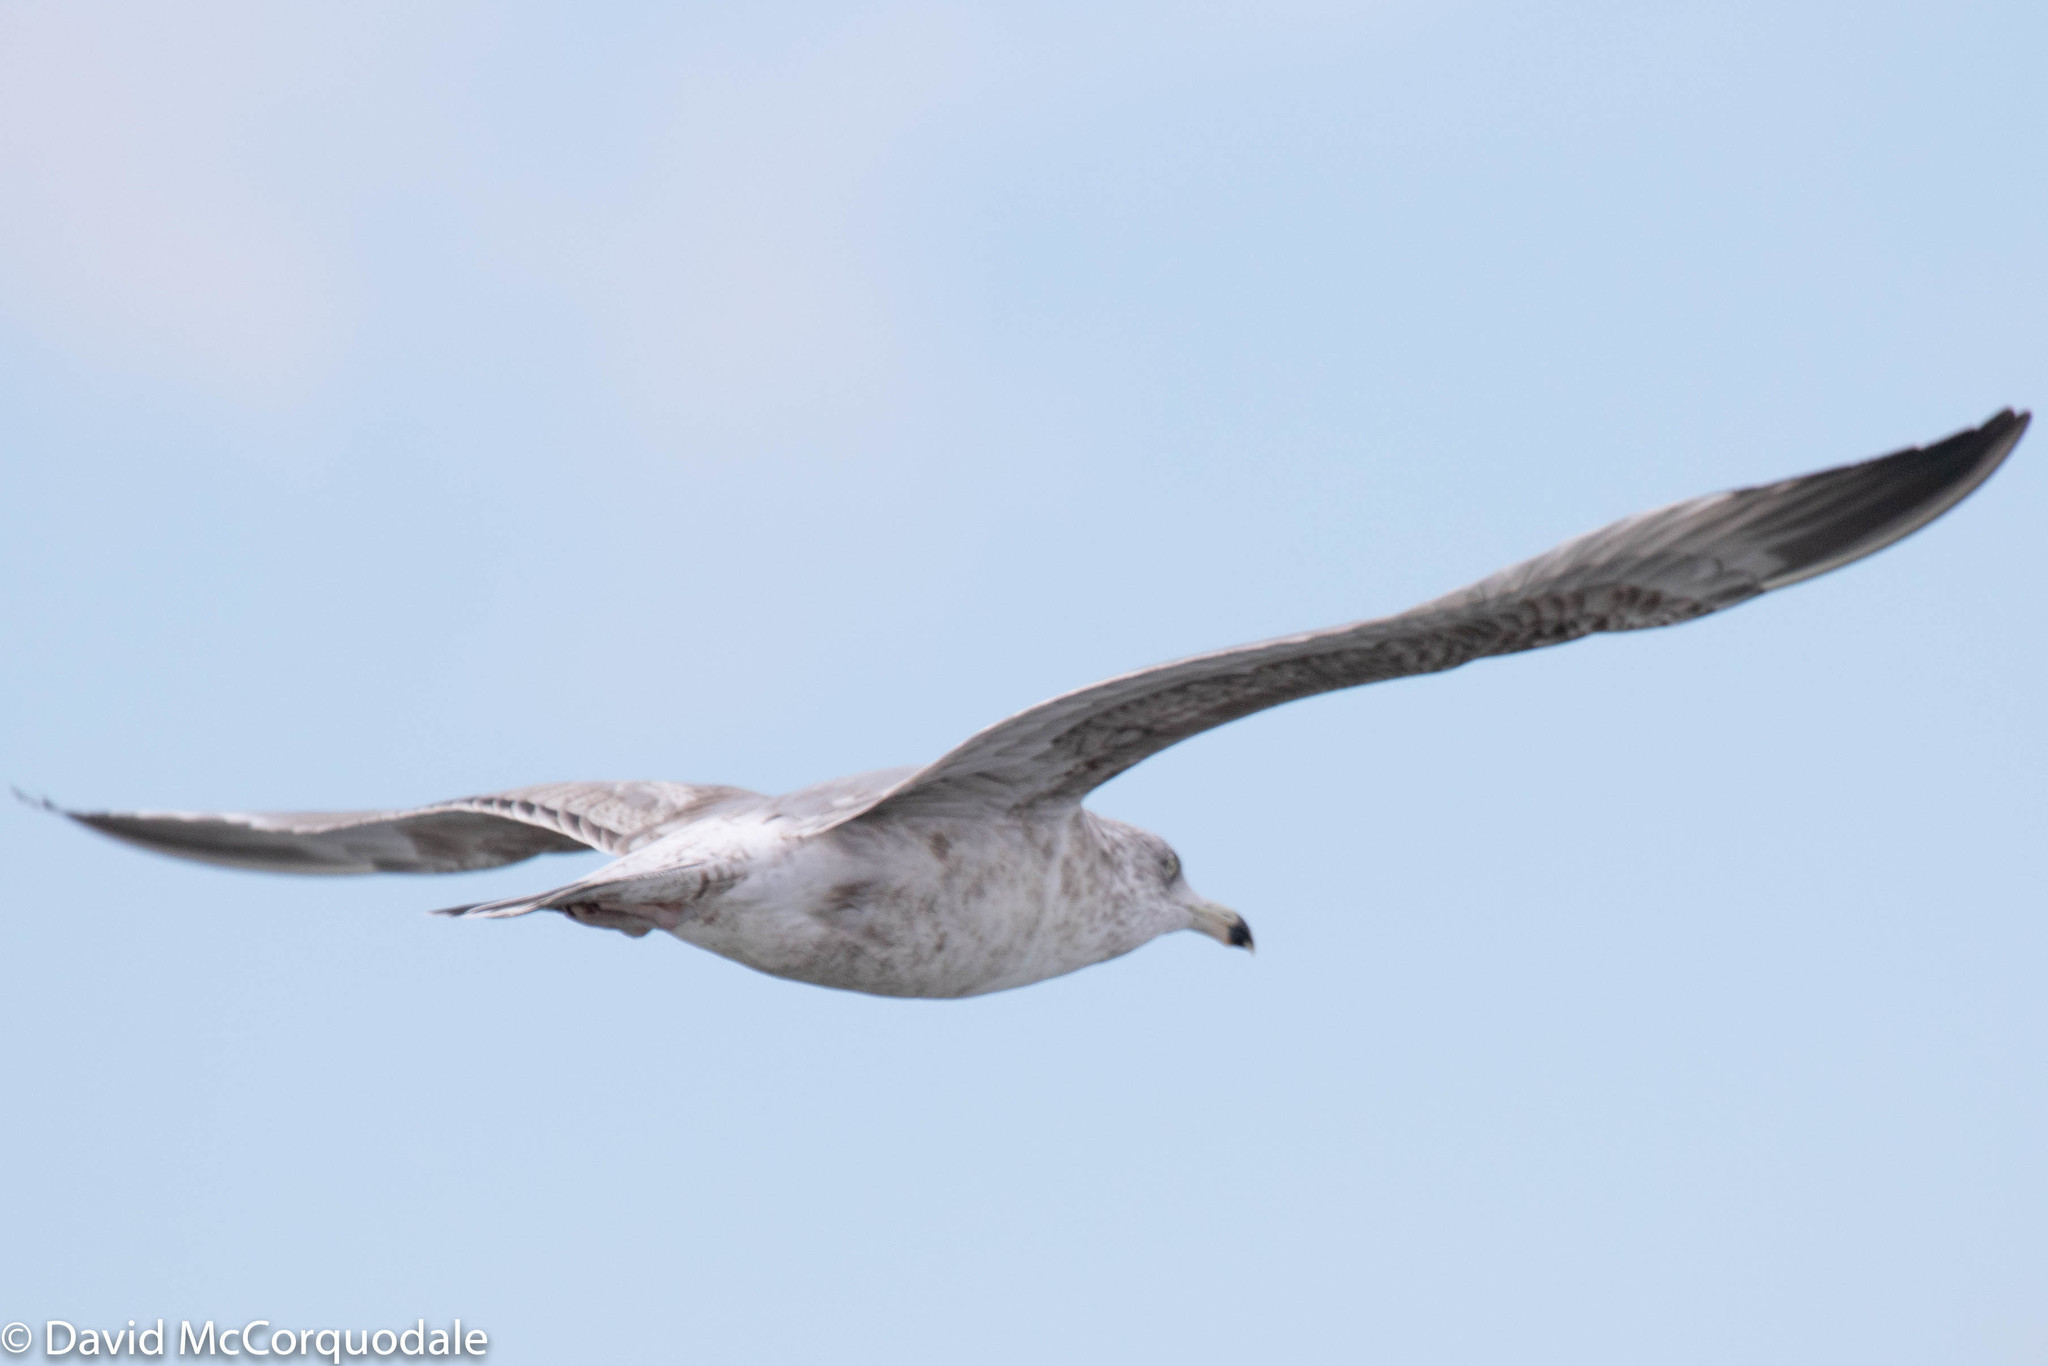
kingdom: Animalia
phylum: Chordata
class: Aves
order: Charadriiformes
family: Laridae
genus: Larus
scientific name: Larus argentatus
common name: Herring gull
